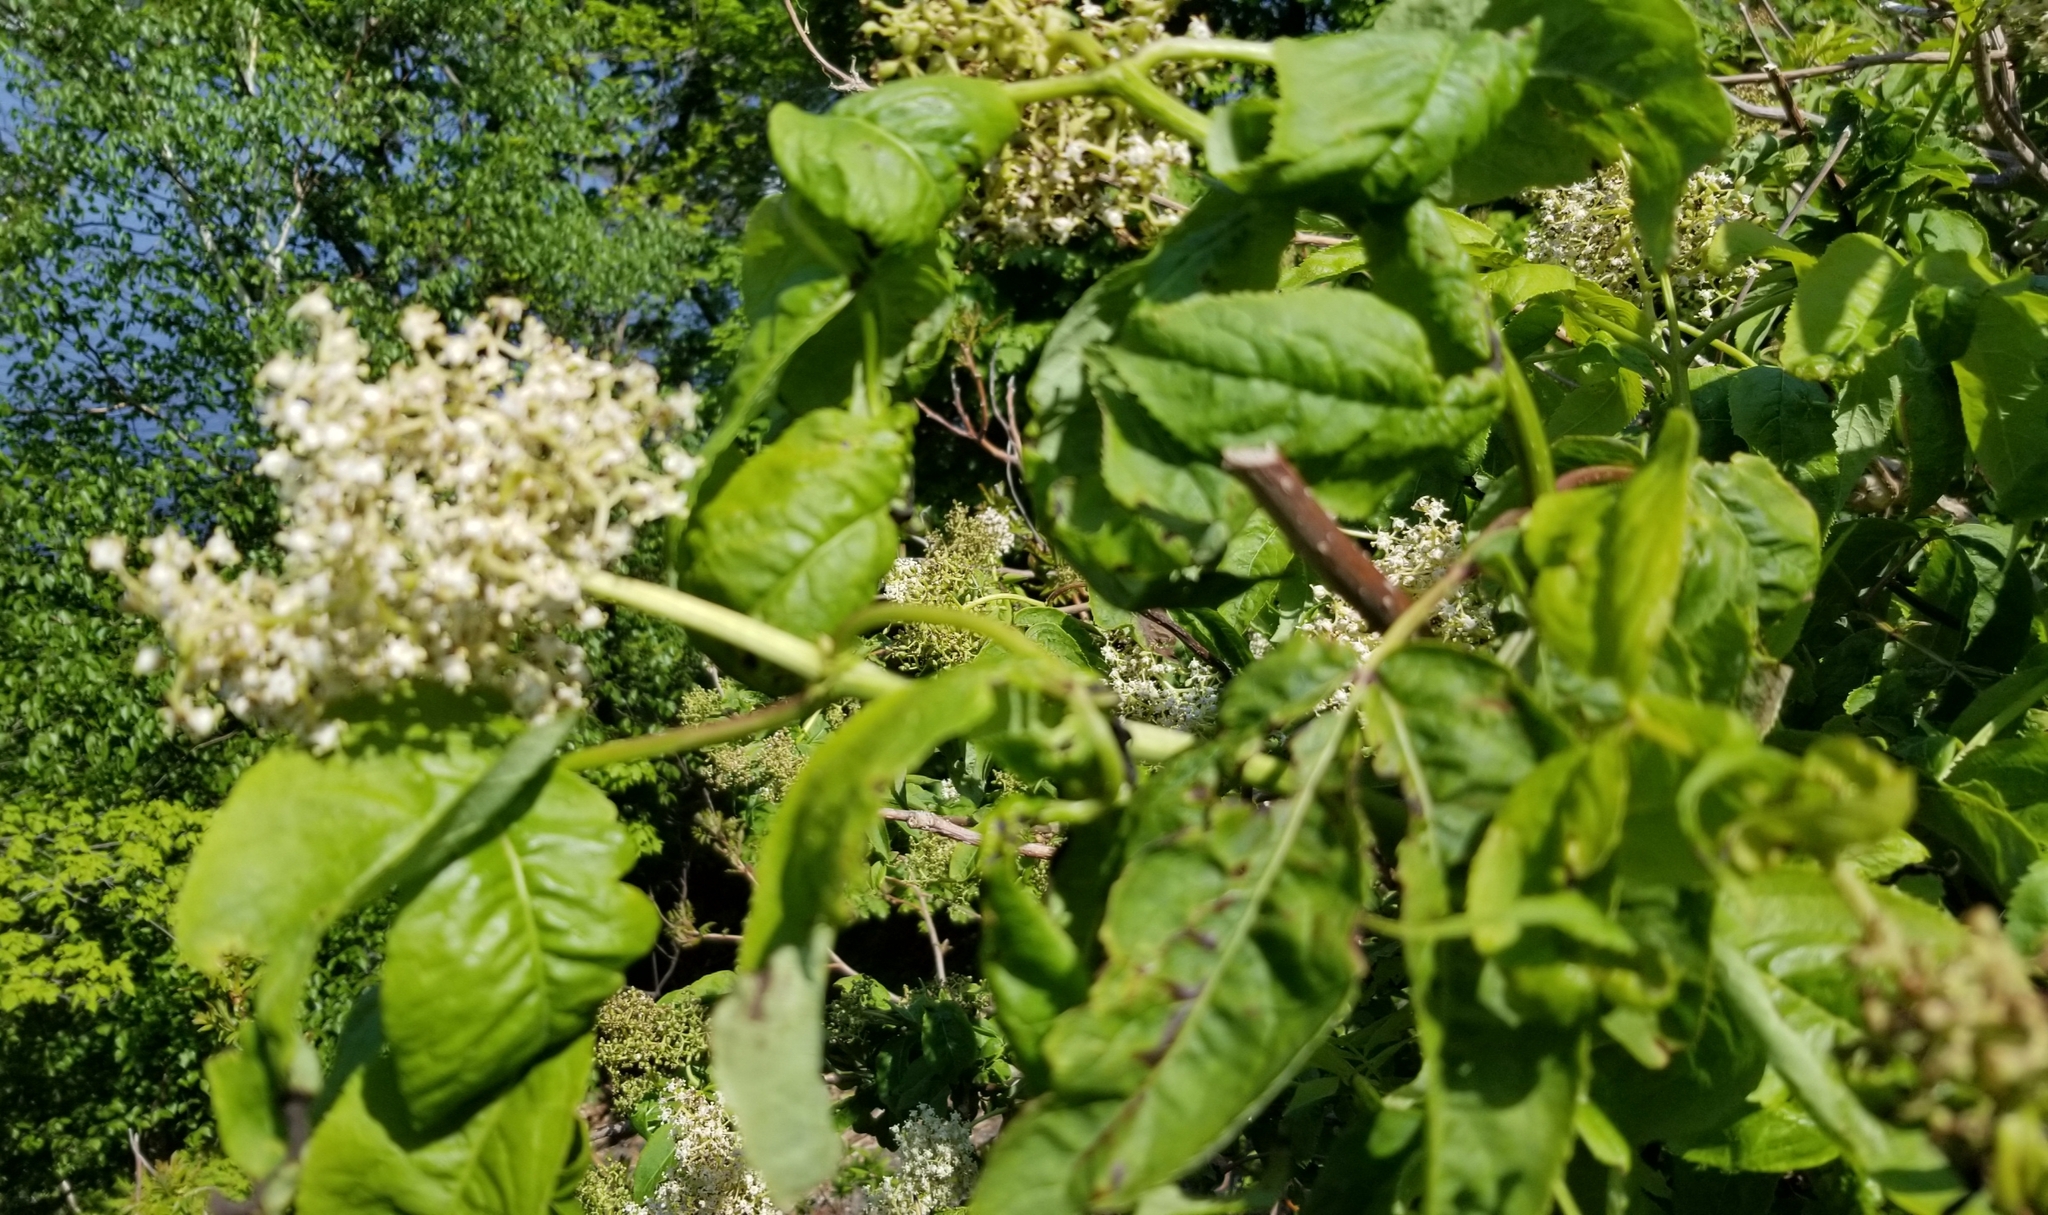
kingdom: Plantae
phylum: Tracheophyta
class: Magnoliopsida
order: Dipsacales
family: Viburnaceae
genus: Sambucus
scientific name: Sambucus racemosa
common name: Red-berried elder
